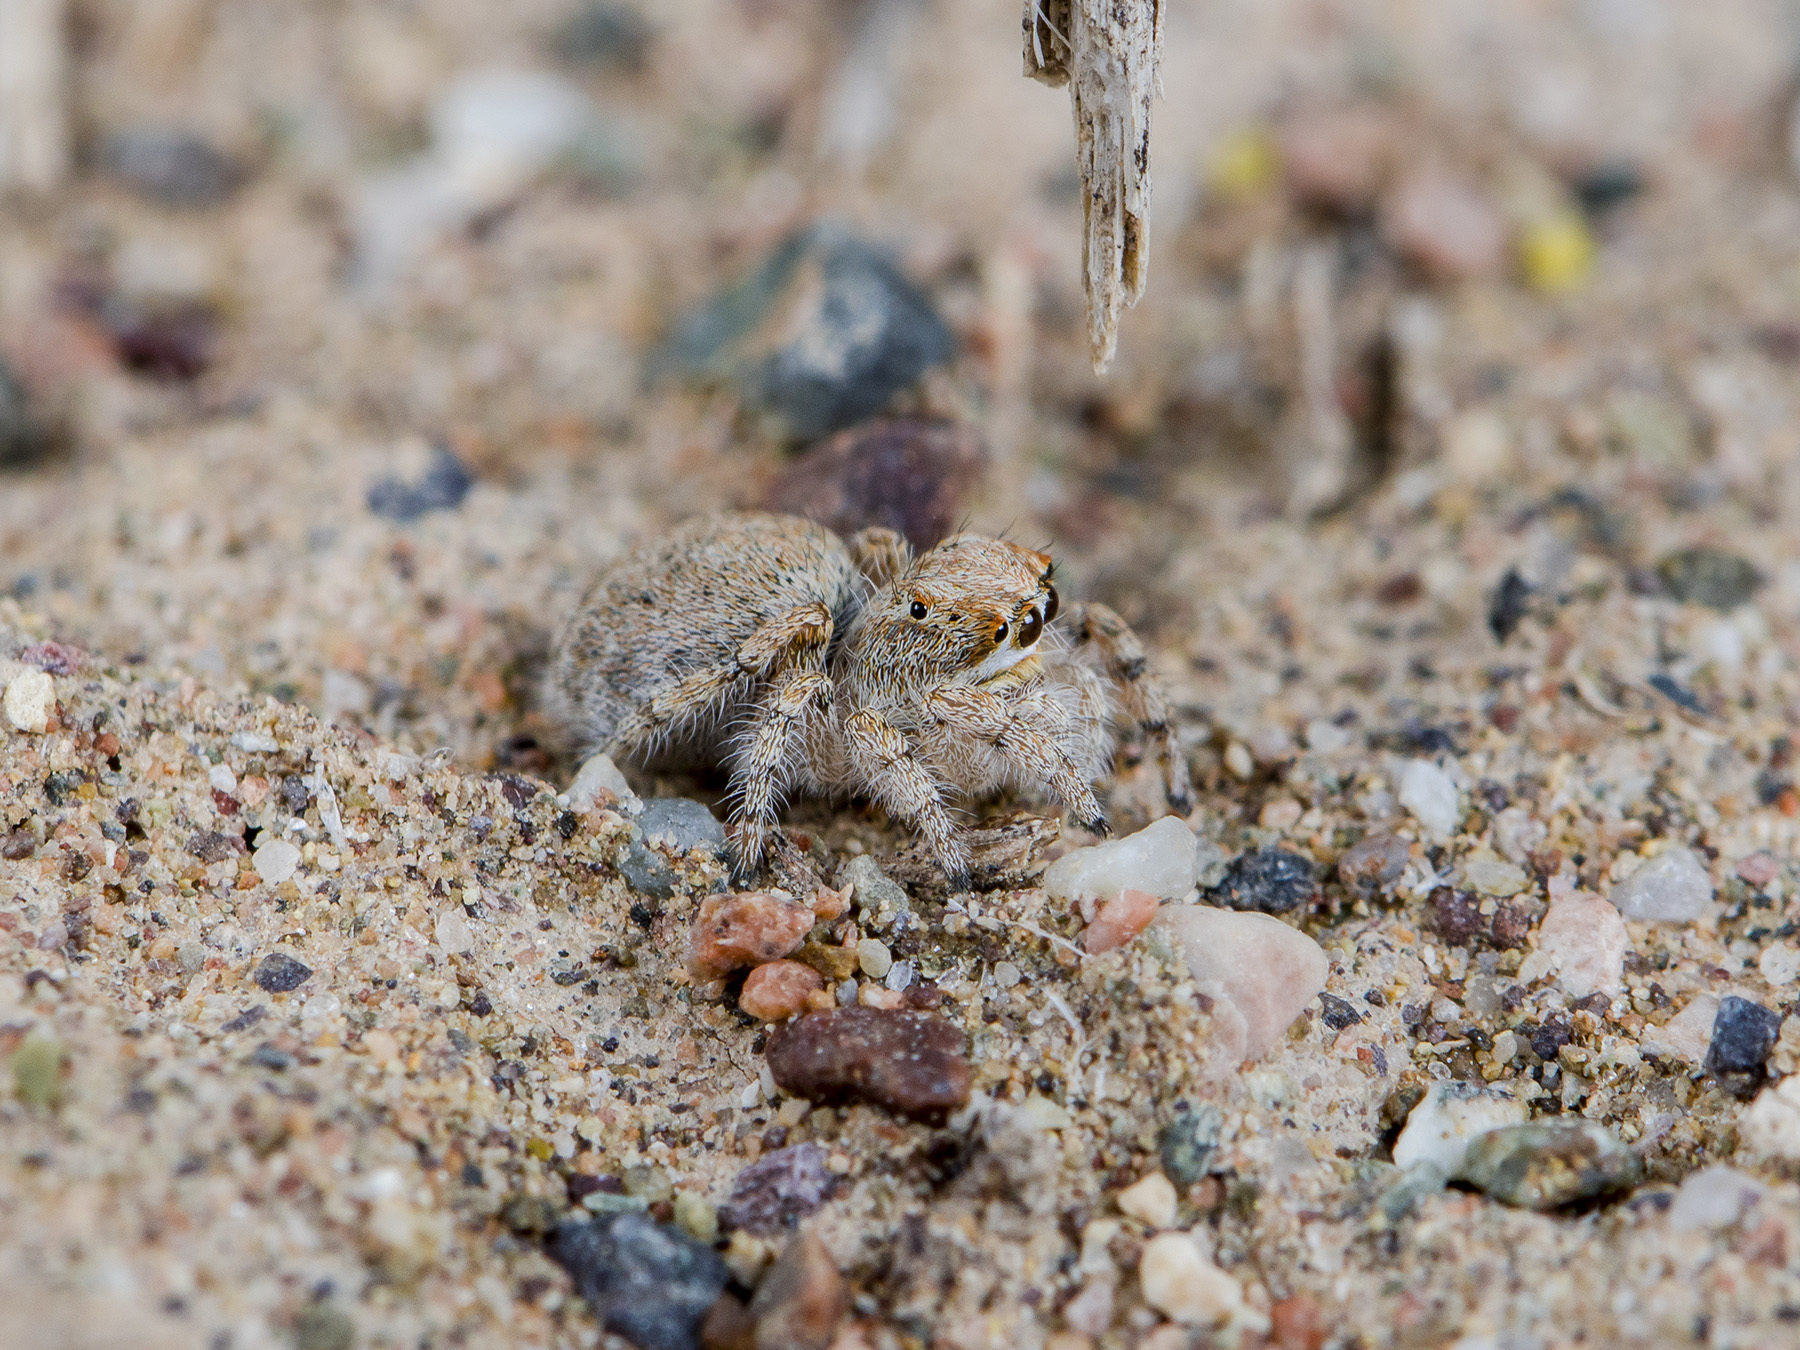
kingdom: Animalia
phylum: Arthropoda
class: Arachnida
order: Araneae
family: Salticidae
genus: Yllenus
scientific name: Yllenus zyuzini
